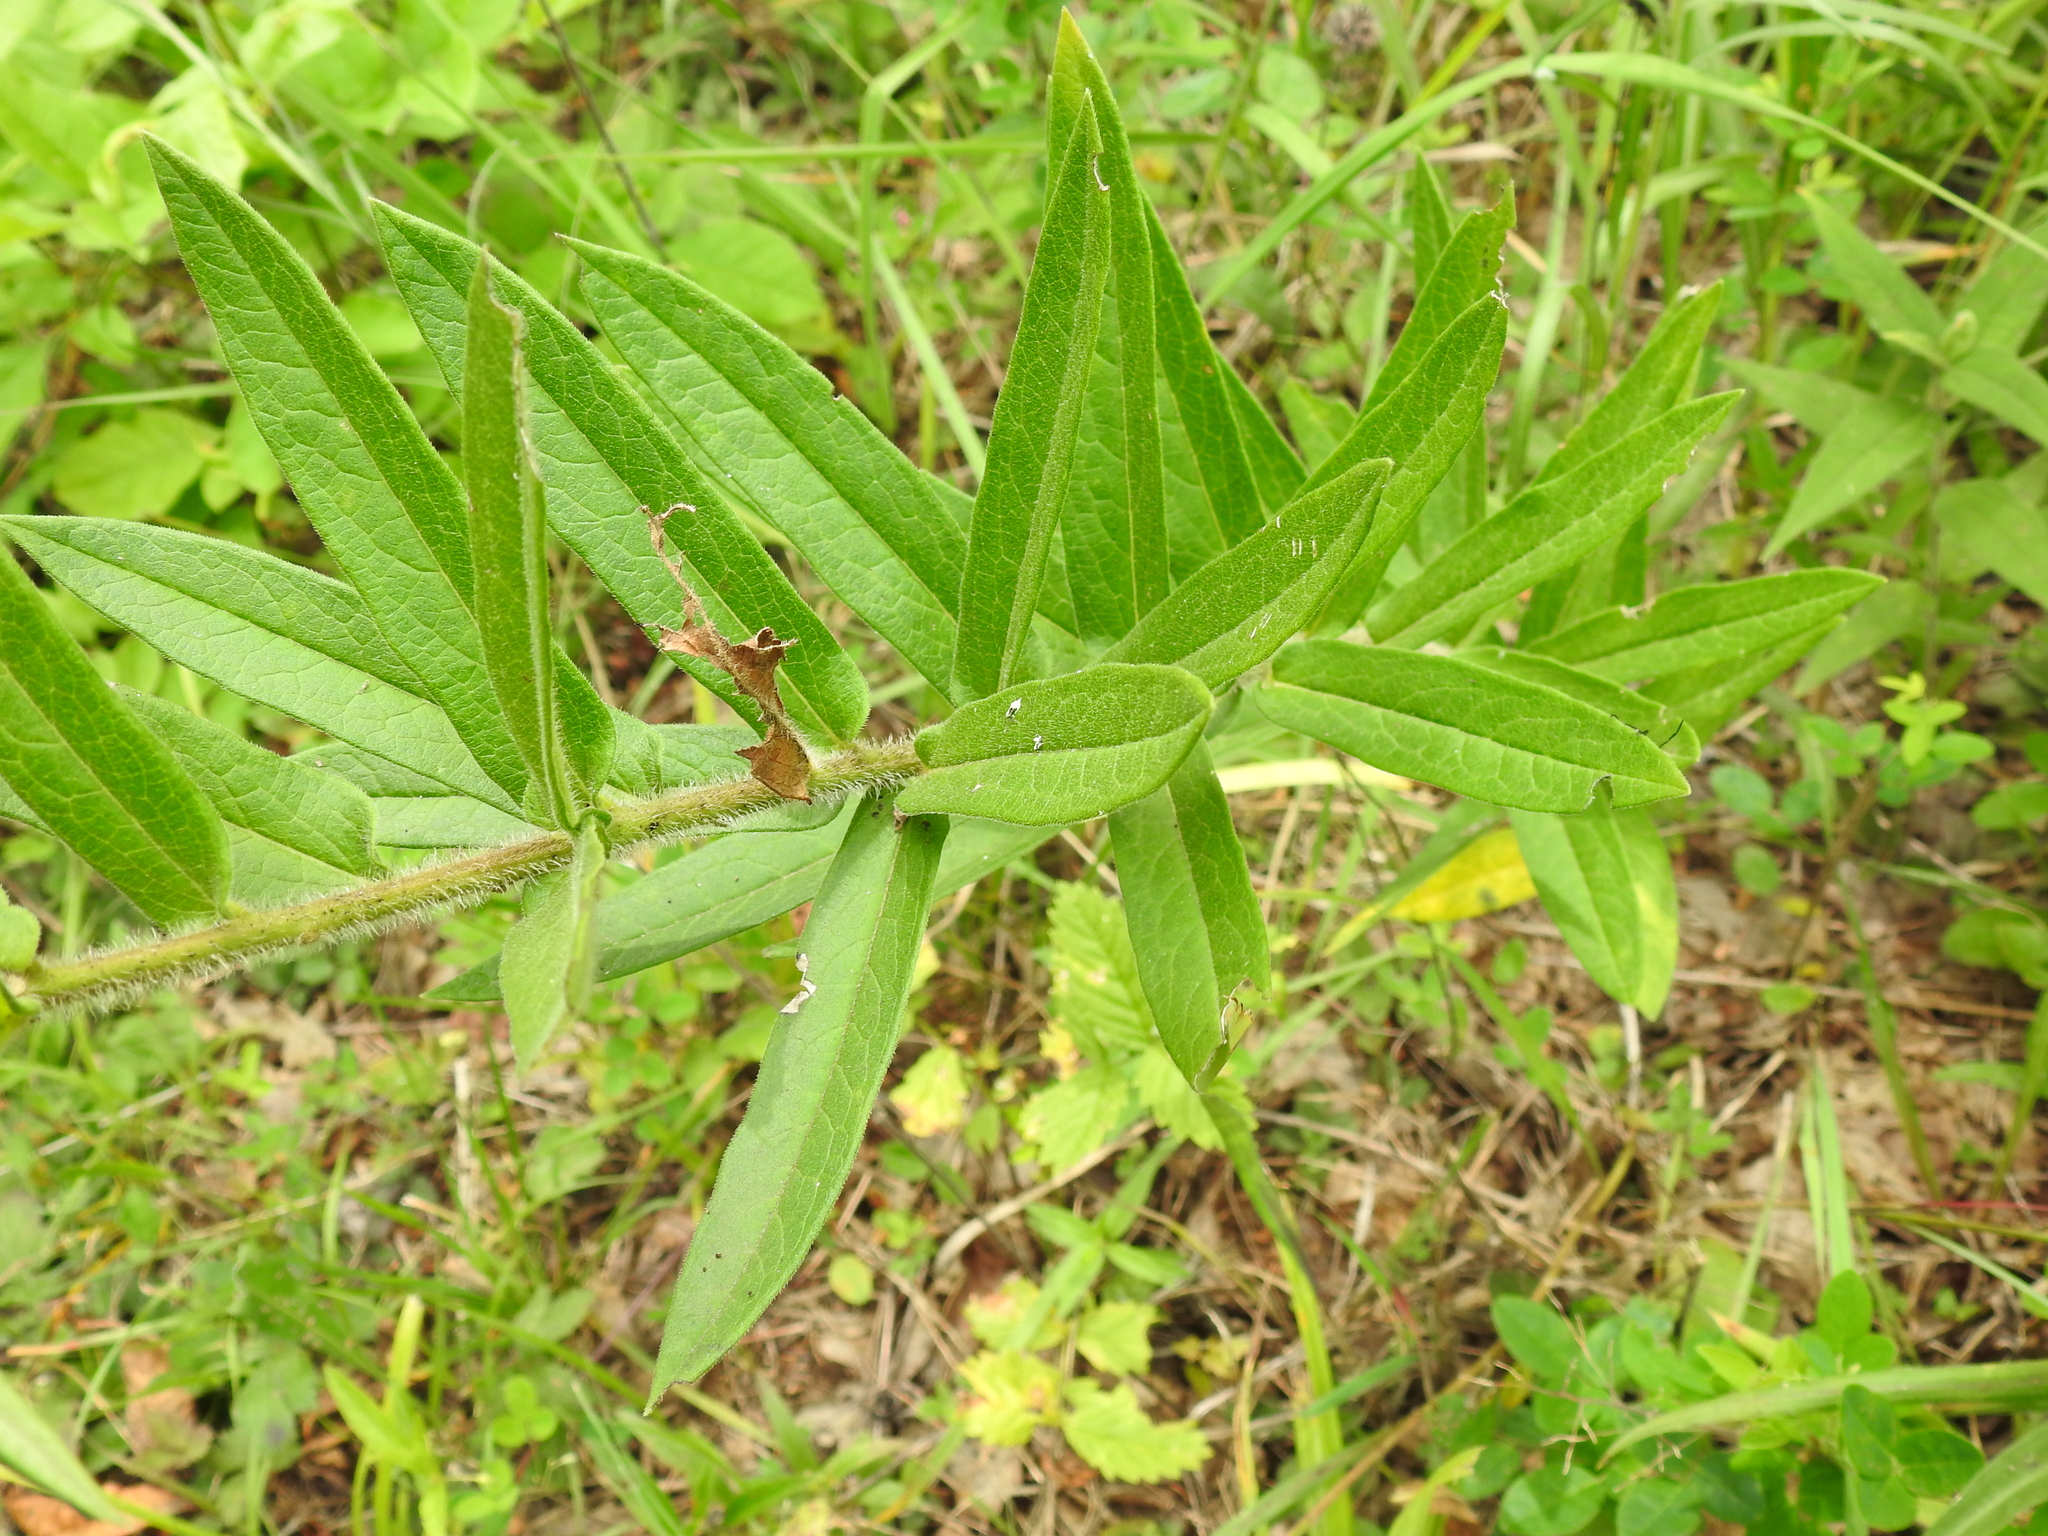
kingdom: Plantae
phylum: Tracheophyta
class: Magnoliopsida
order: Gentianales
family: Apocynaceae
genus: Asclepias
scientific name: Asclepias tuberosa
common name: Butterfly milkweed
